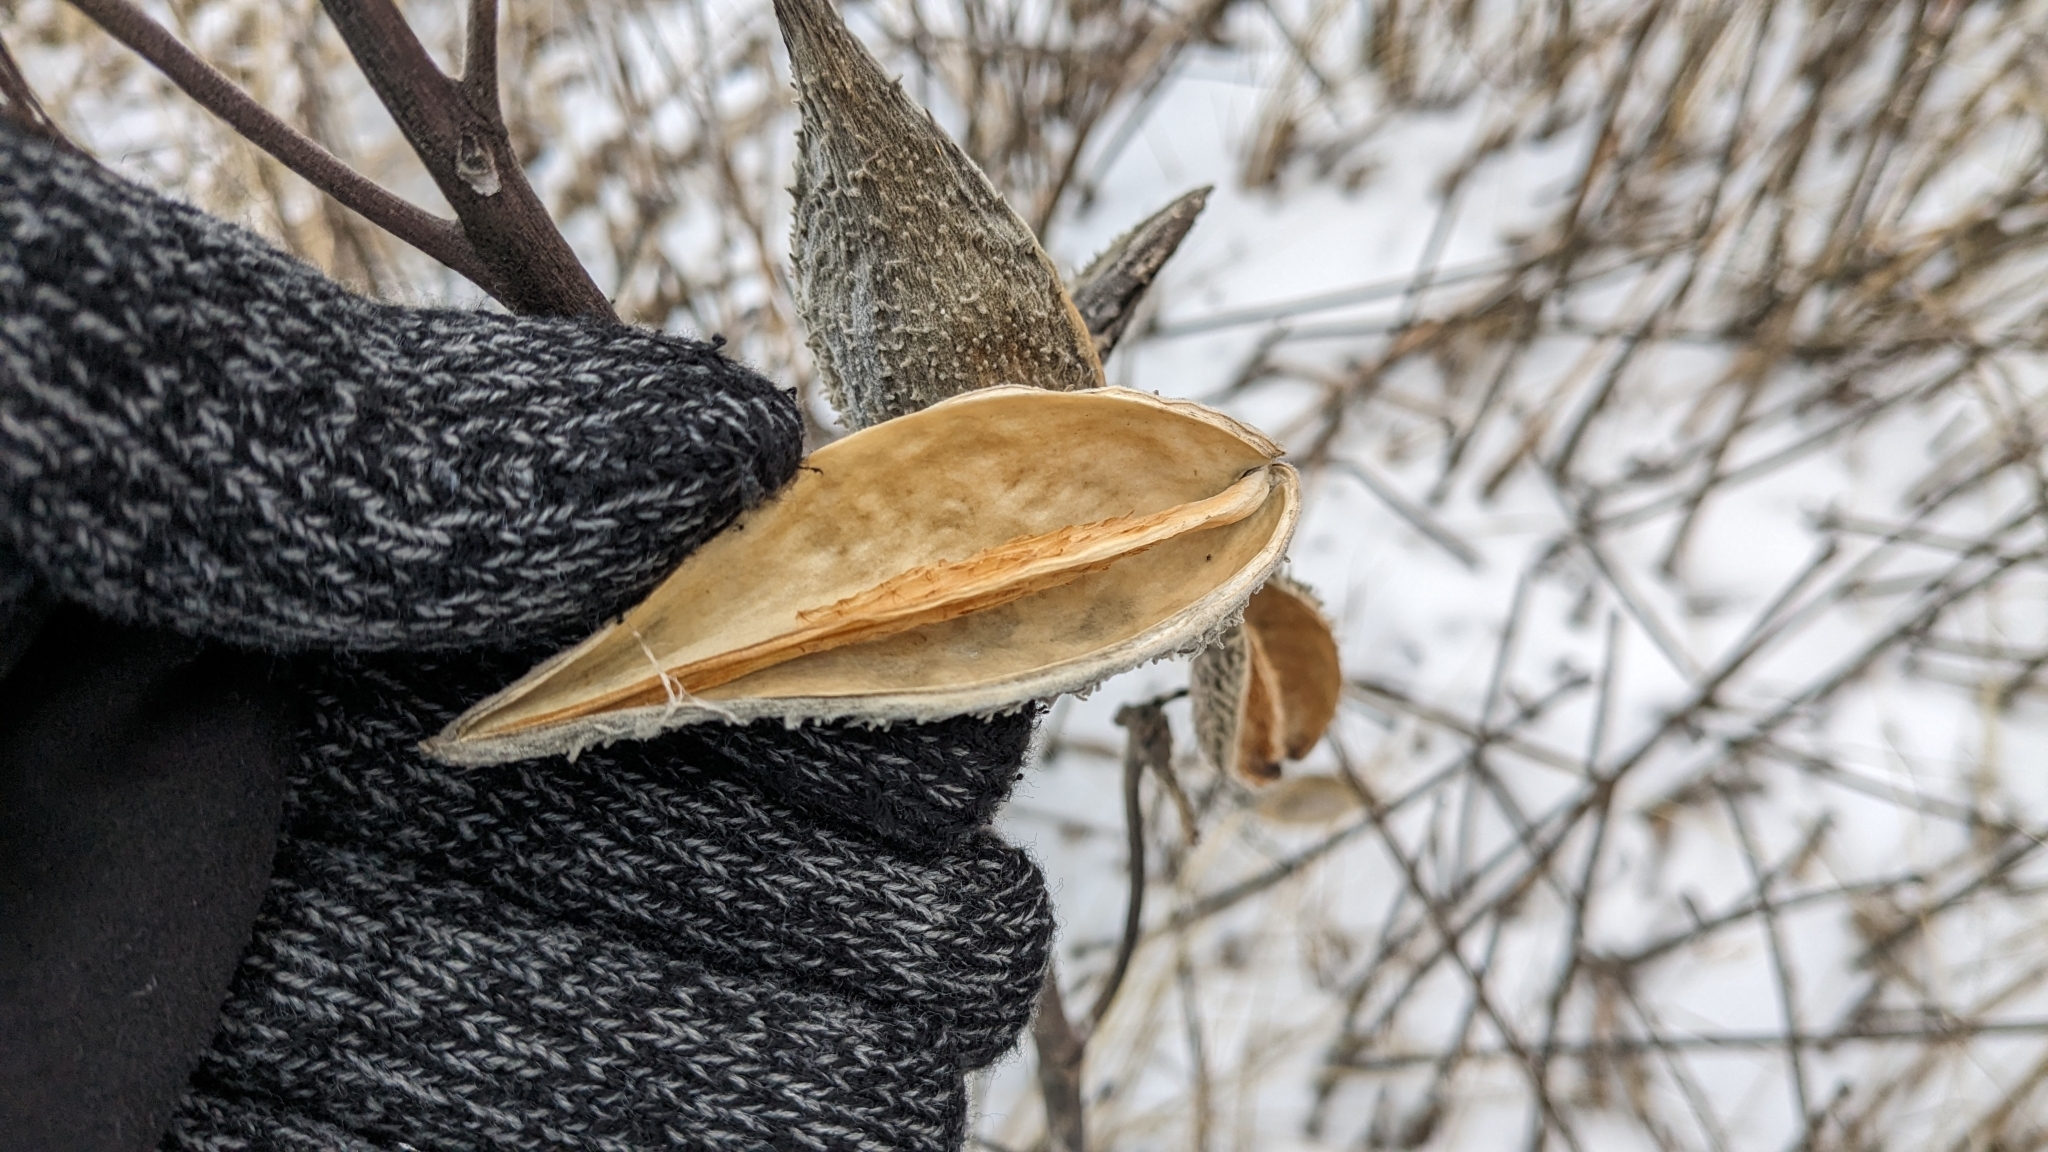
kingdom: Plantae
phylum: Tracheophyta
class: Magnoliopsida
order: Gentianales
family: Apocynaceae
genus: Asclepias
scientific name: Asclepias syriaca
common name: Common milkweed
